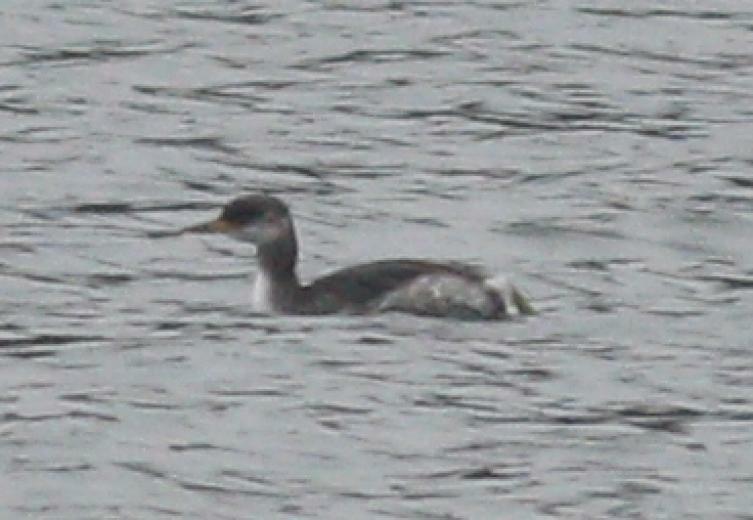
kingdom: Animalia
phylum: Chordata
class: Aves
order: Podicipediformes
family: Podicipedidae
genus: Podiceps
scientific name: Podiceps grisegena
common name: Red-necked grebe
